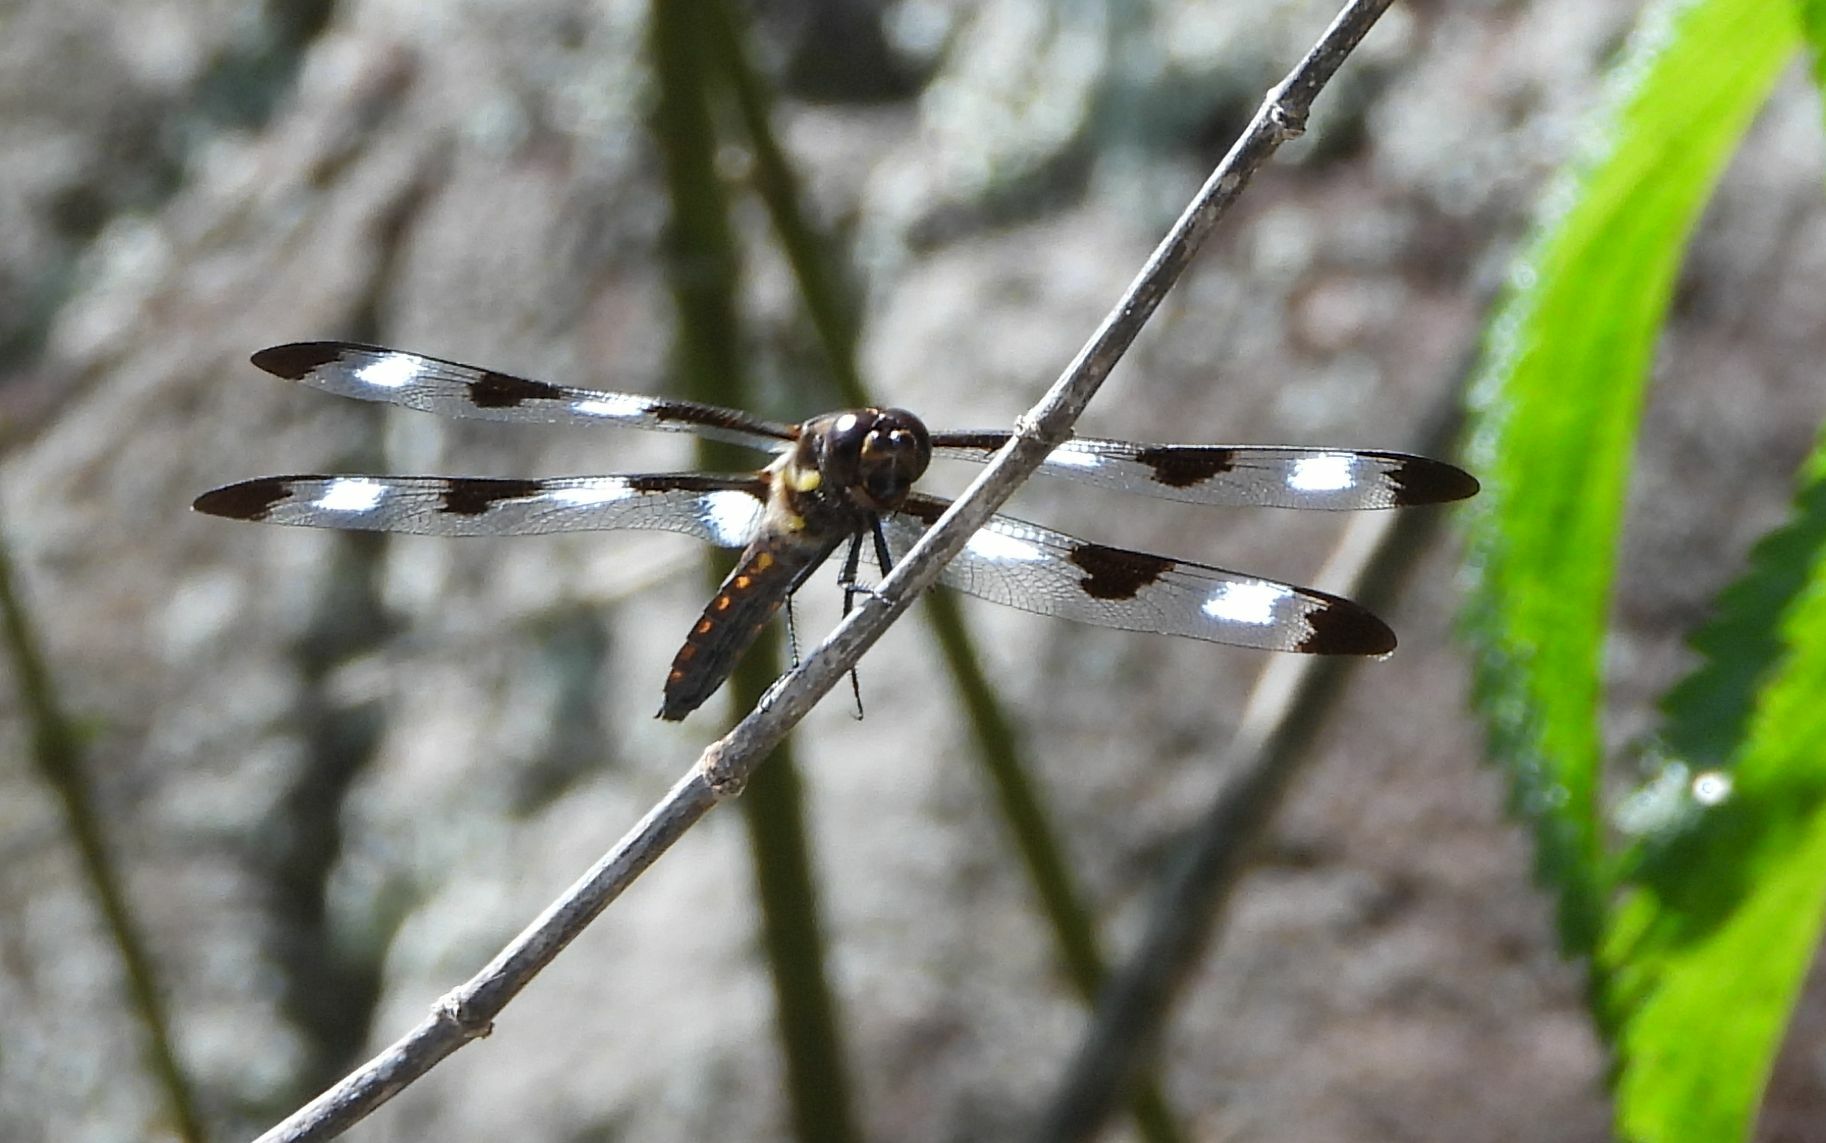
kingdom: Animalia
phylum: Arthropoda
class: Insecta
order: Odonata
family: Libellulidae
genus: Libellula
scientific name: Libellula pulchella
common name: Twelve-spotted skimmer
